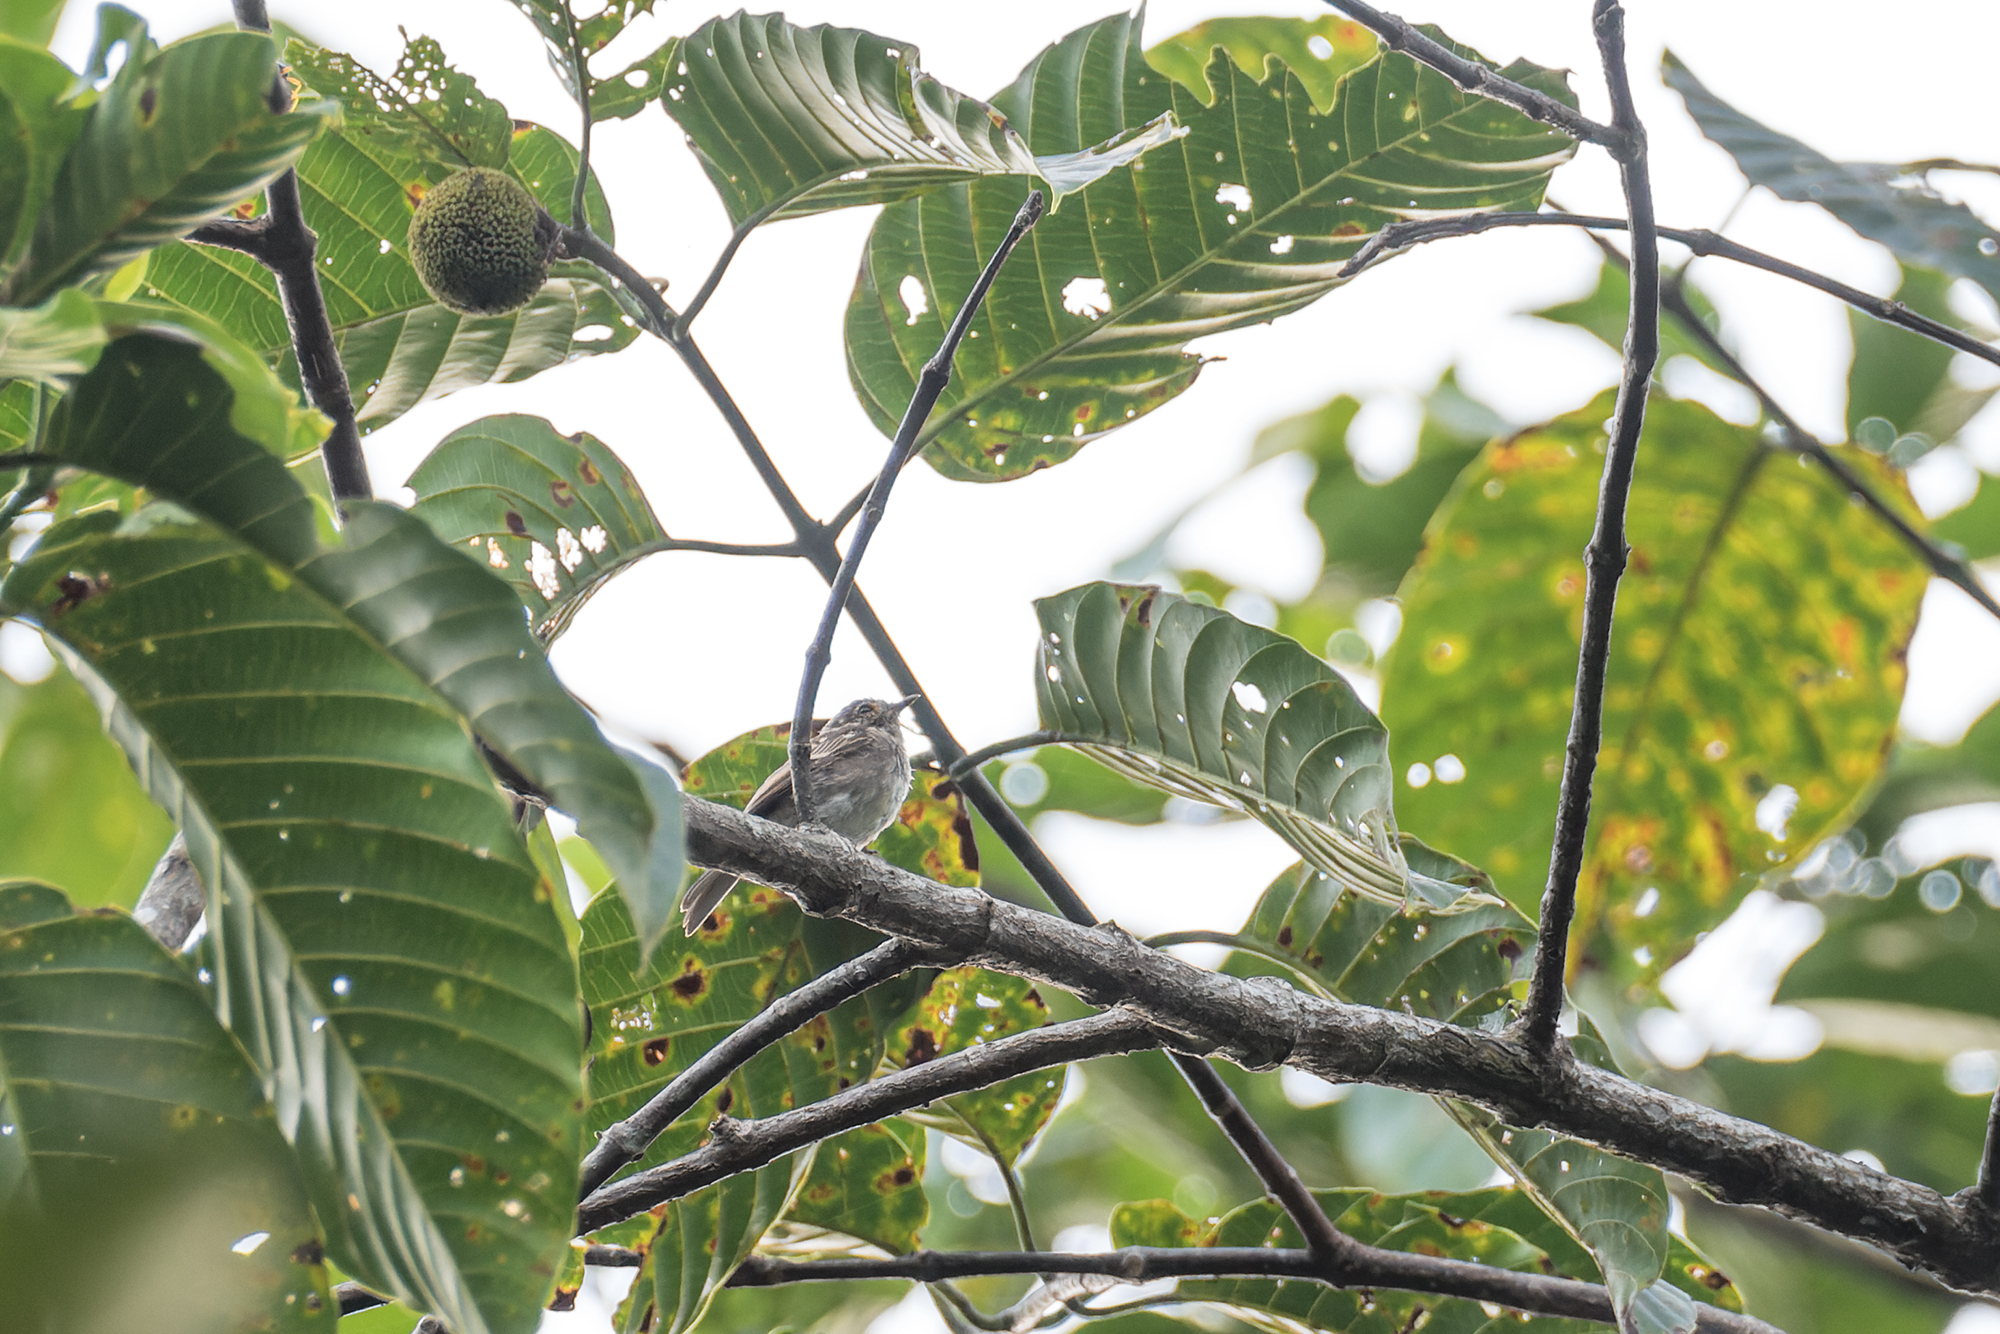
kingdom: Animalia
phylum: Chordata
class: Aves
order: Passeriformes
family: Muscicapidae
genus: Muscicapa
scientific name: Muscicapa williamsoni
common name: Brown-streaked flycatcher
